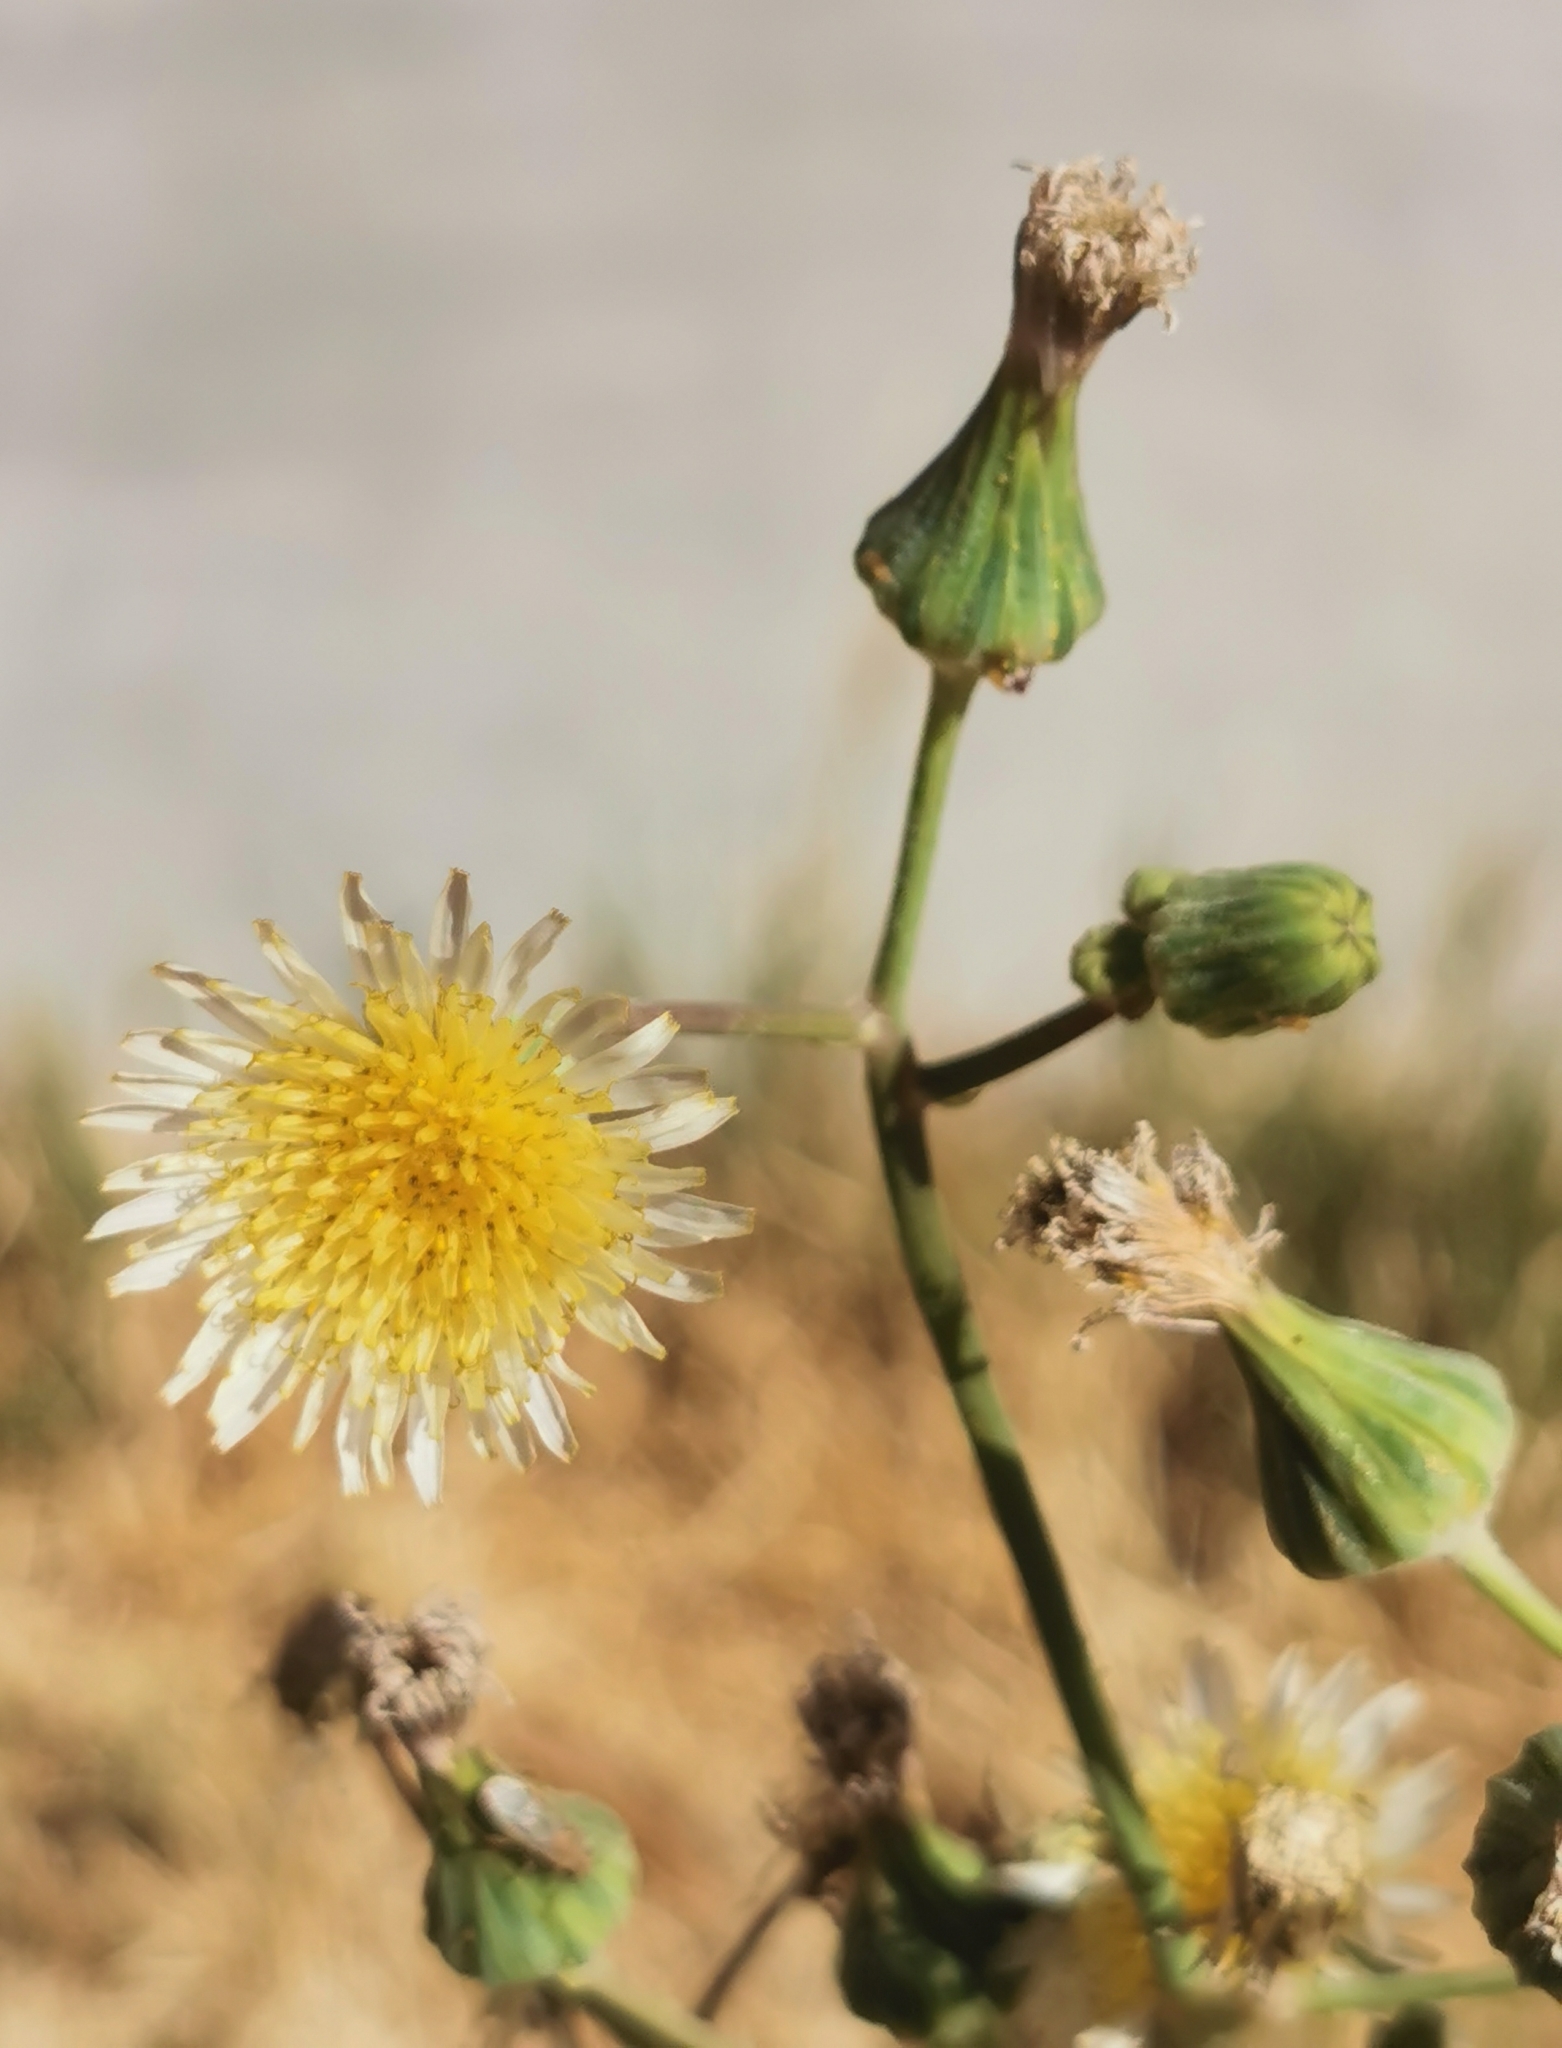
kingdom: Plantae
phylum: Tracheophyta
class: Magnoliopsida
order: Asterales
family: Asteraceae
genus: Sonchus
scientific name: Sonchus oleraceus
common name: Common sowthistle
